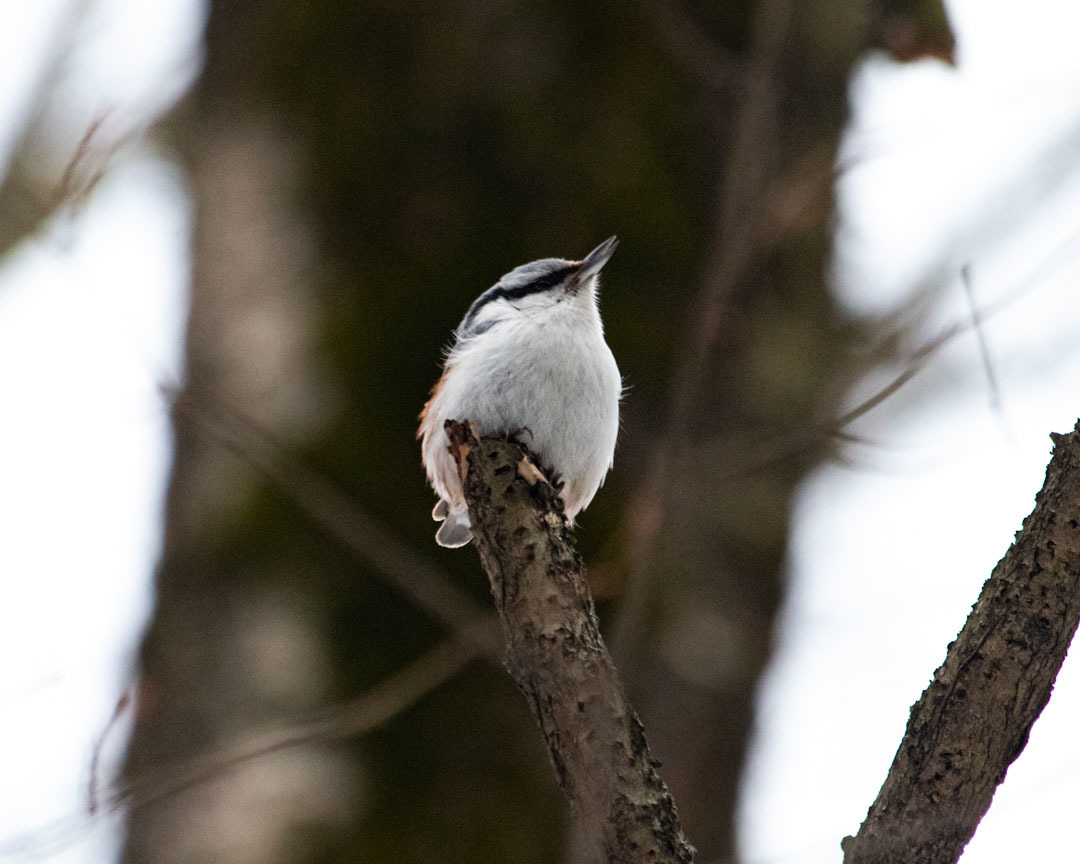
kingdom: Animalia
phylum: Chordata
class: Aves
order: Passeriformes
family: Sittidae
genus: Sitta
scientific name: Sitta europaea
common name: Eurasian nuthatch
